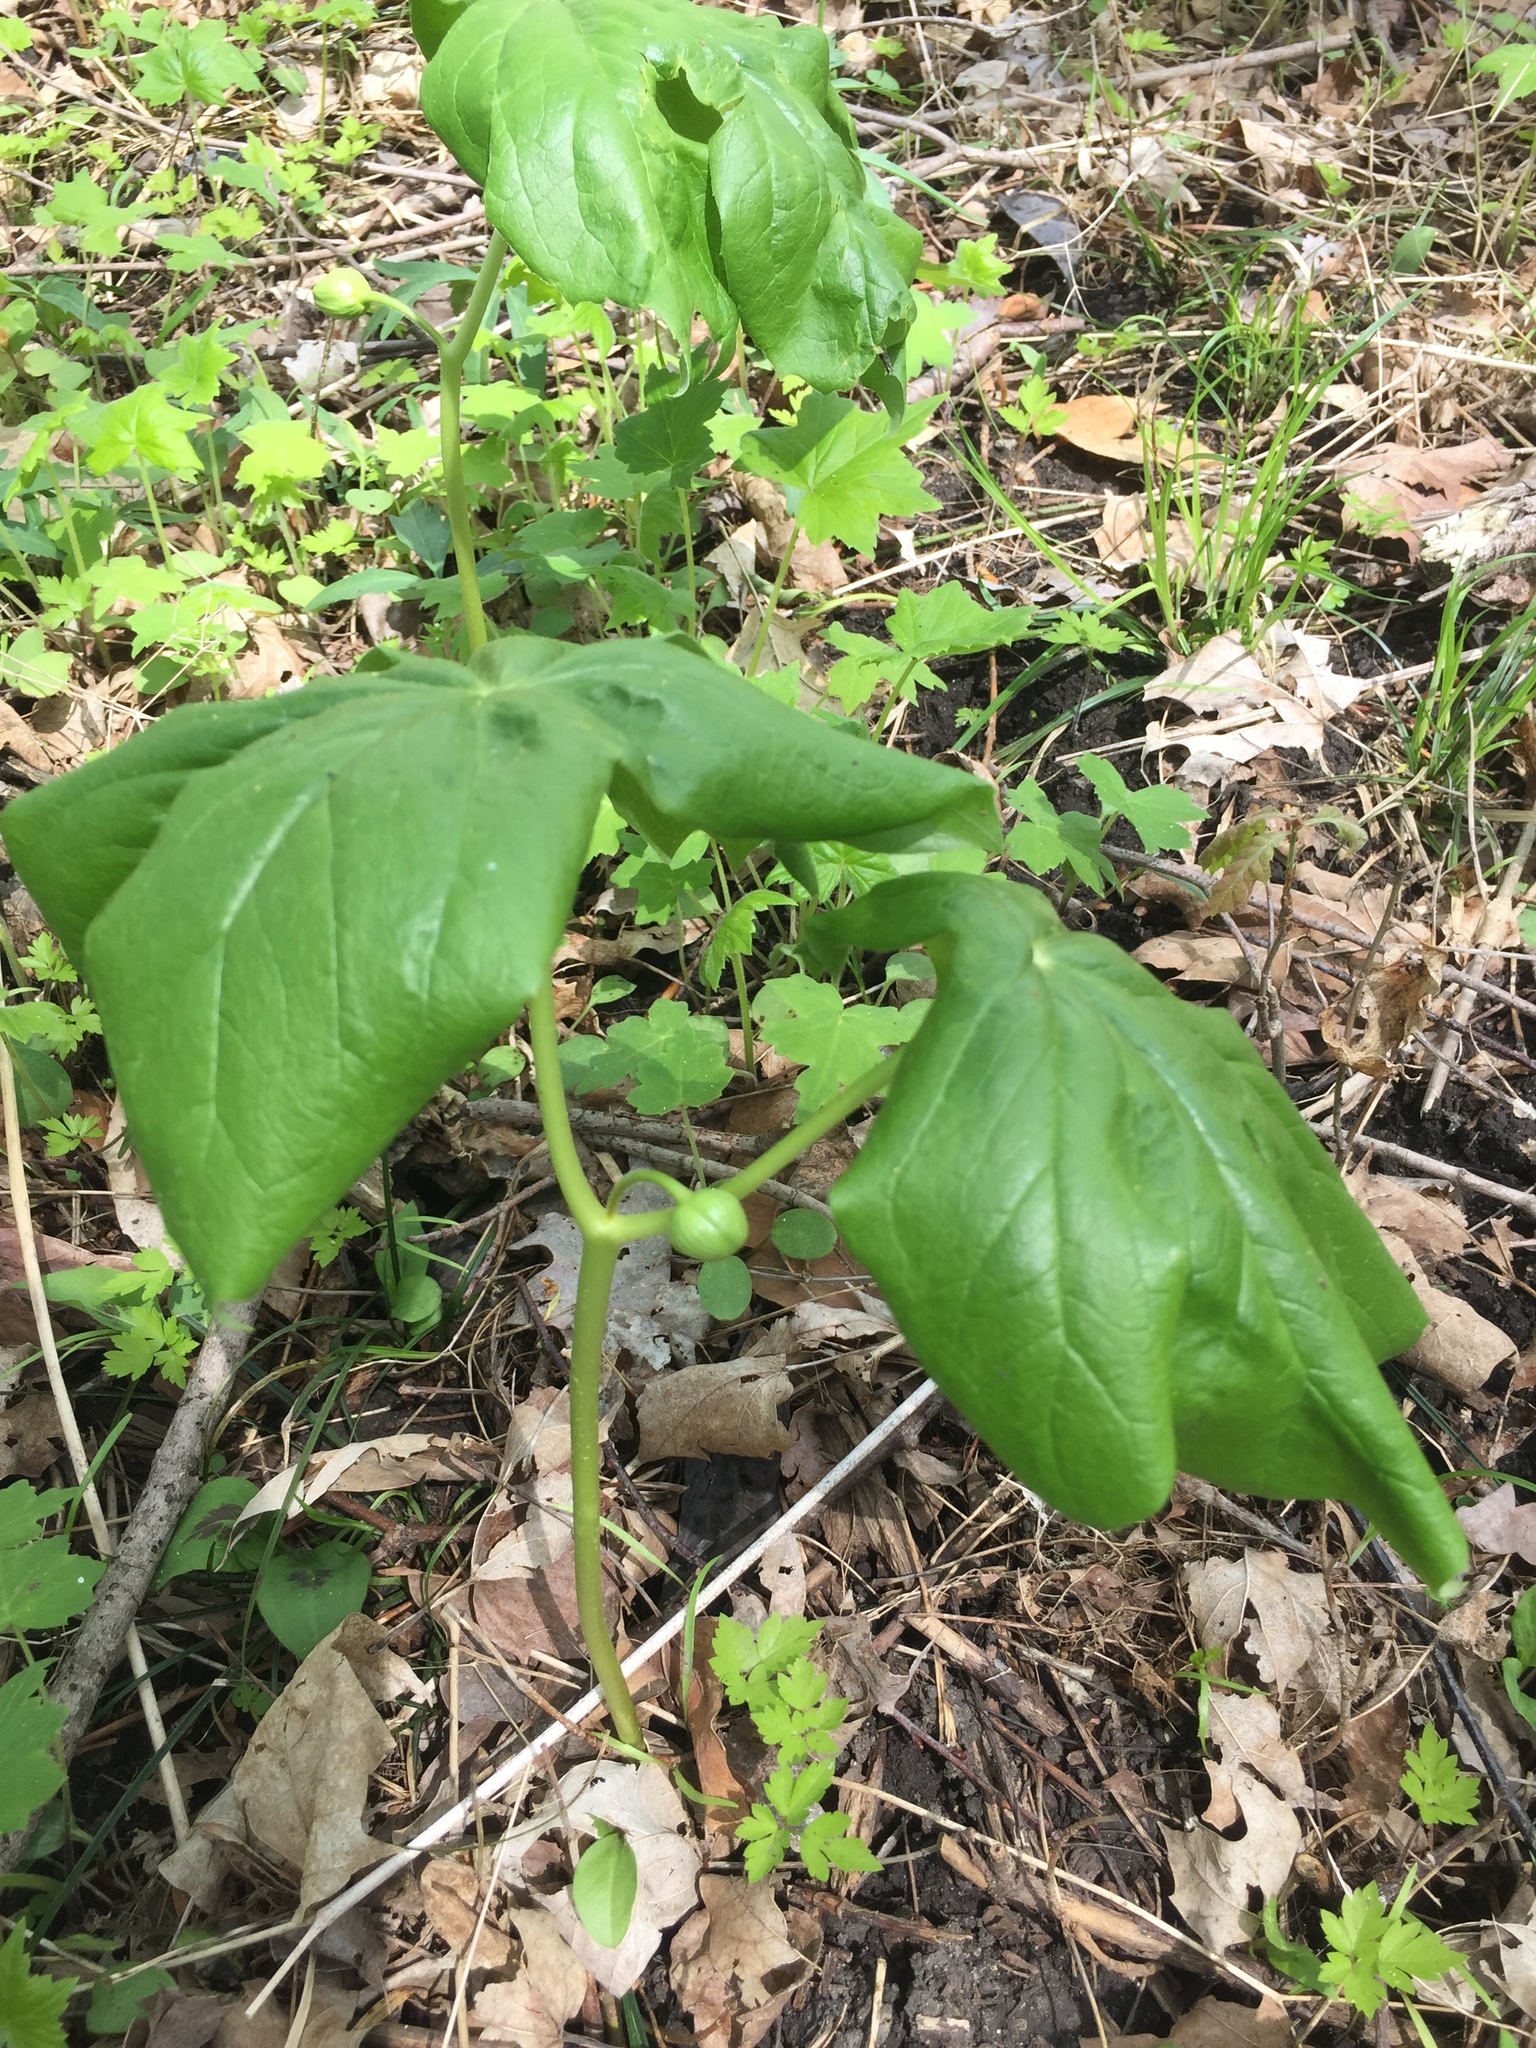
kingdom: Plantae
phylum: Tracheophyta
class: Magnoliopsida
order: Ranunculales
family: Berberidaceae
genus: Podophyllum
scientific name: Podophyllum peltatum
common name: Wild mandrake
